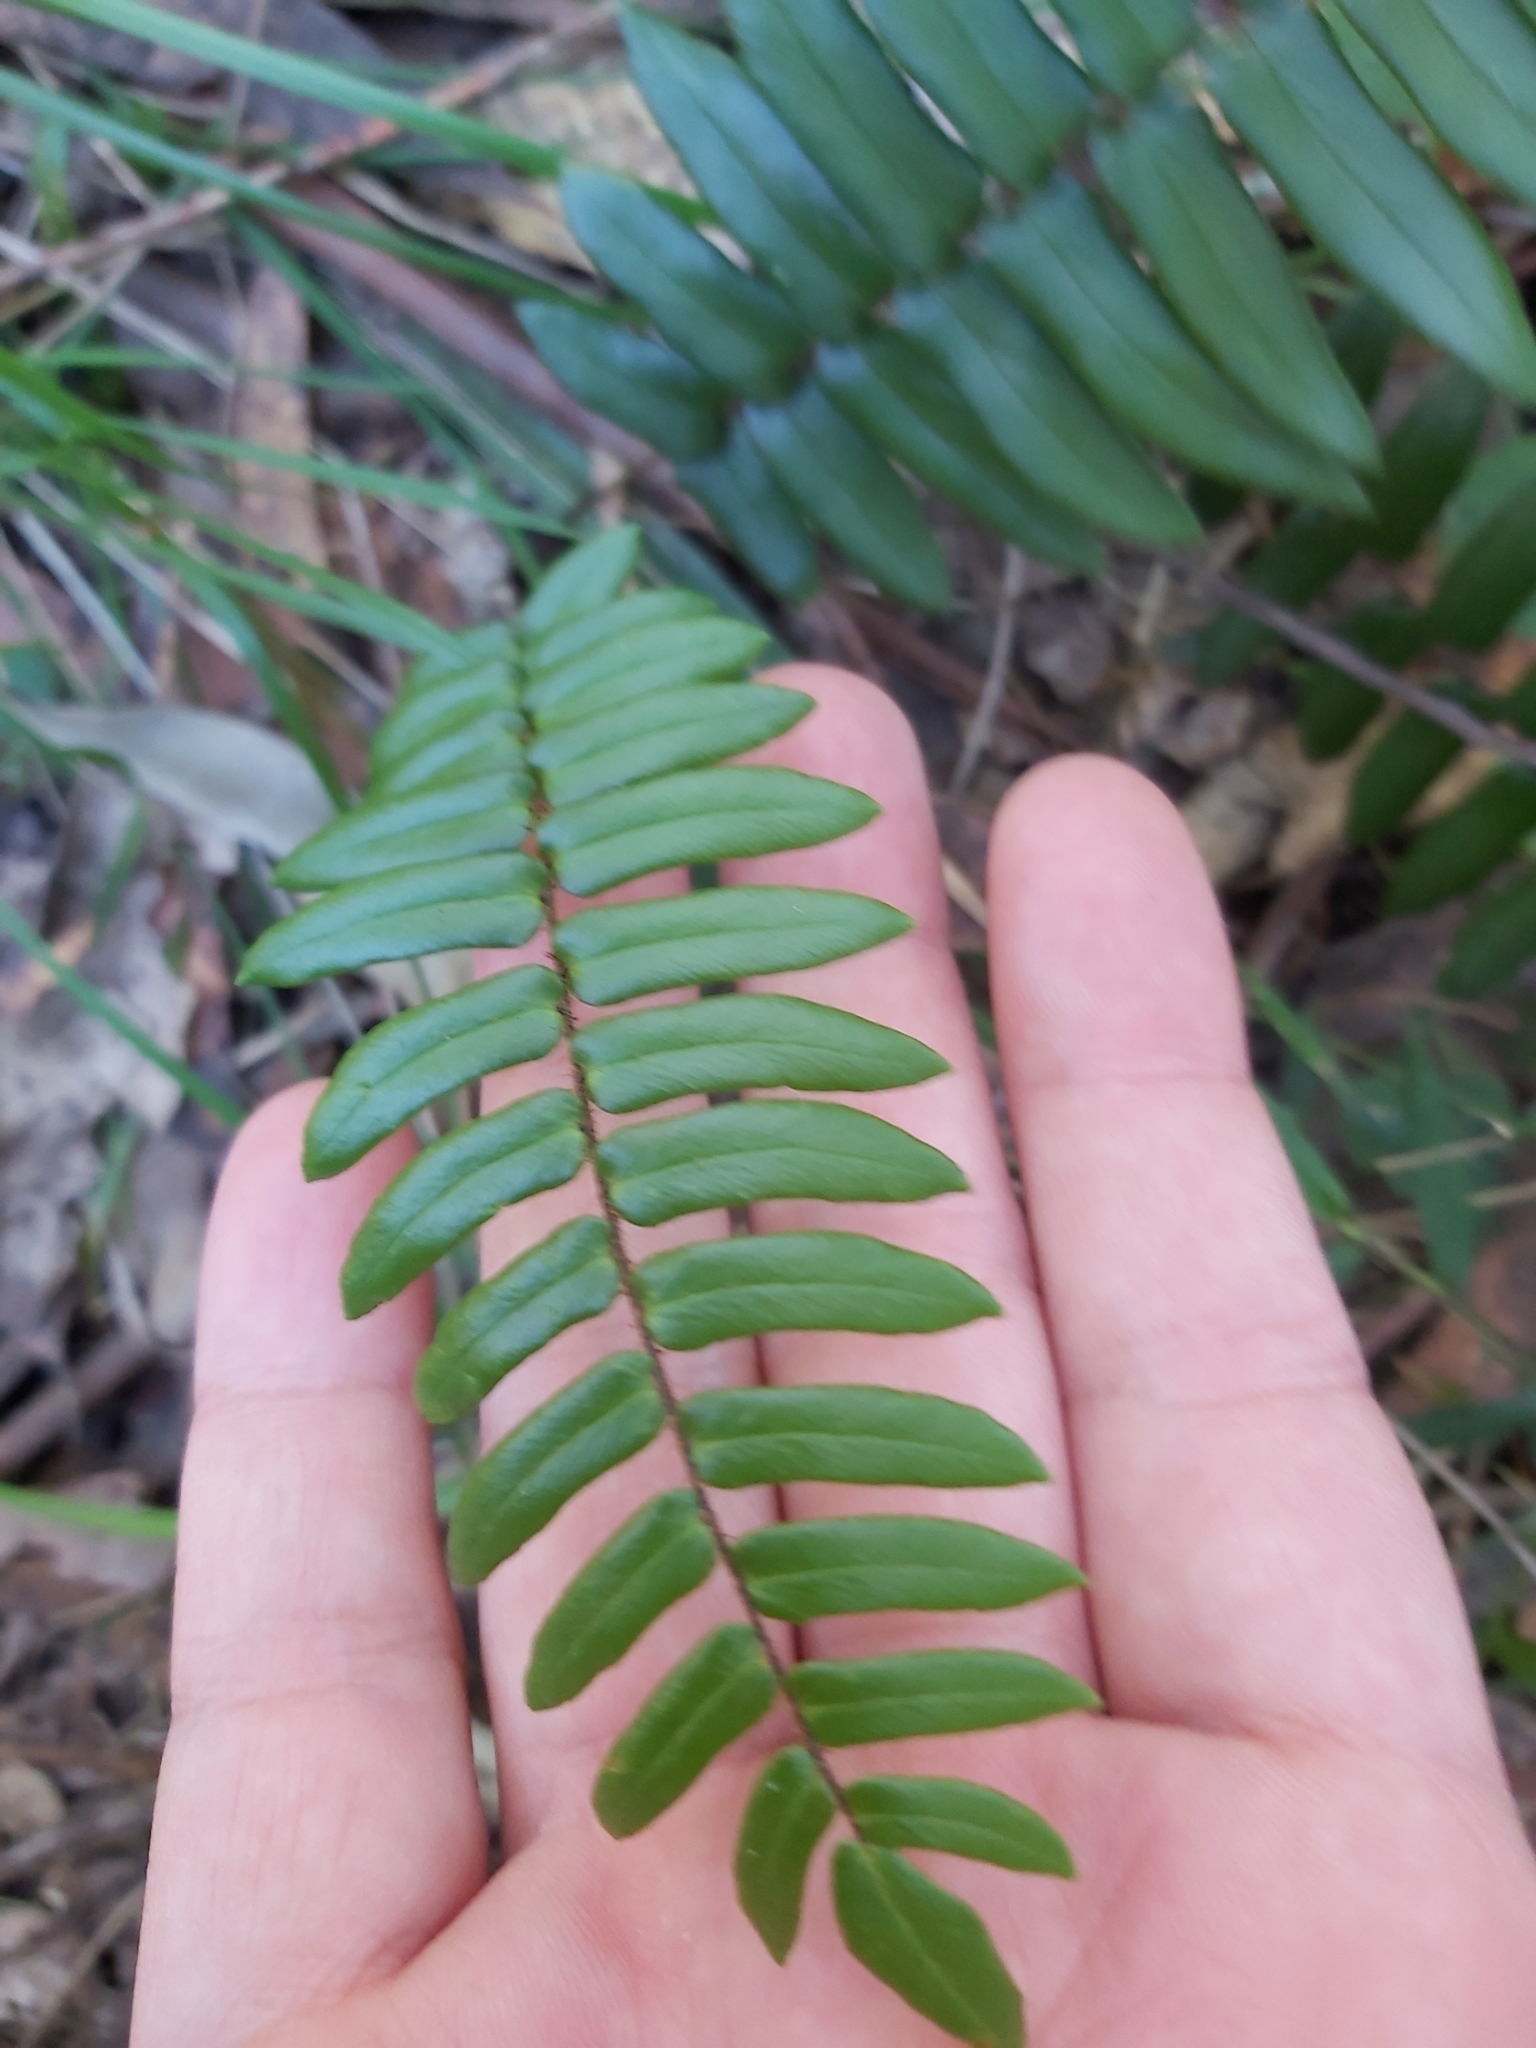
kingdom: Plantae
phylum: Tracheophyta
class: Polypodiopsida
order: Polypodiales
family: Pteridaceae
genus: Pellaea
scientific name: Pellaea falcata
